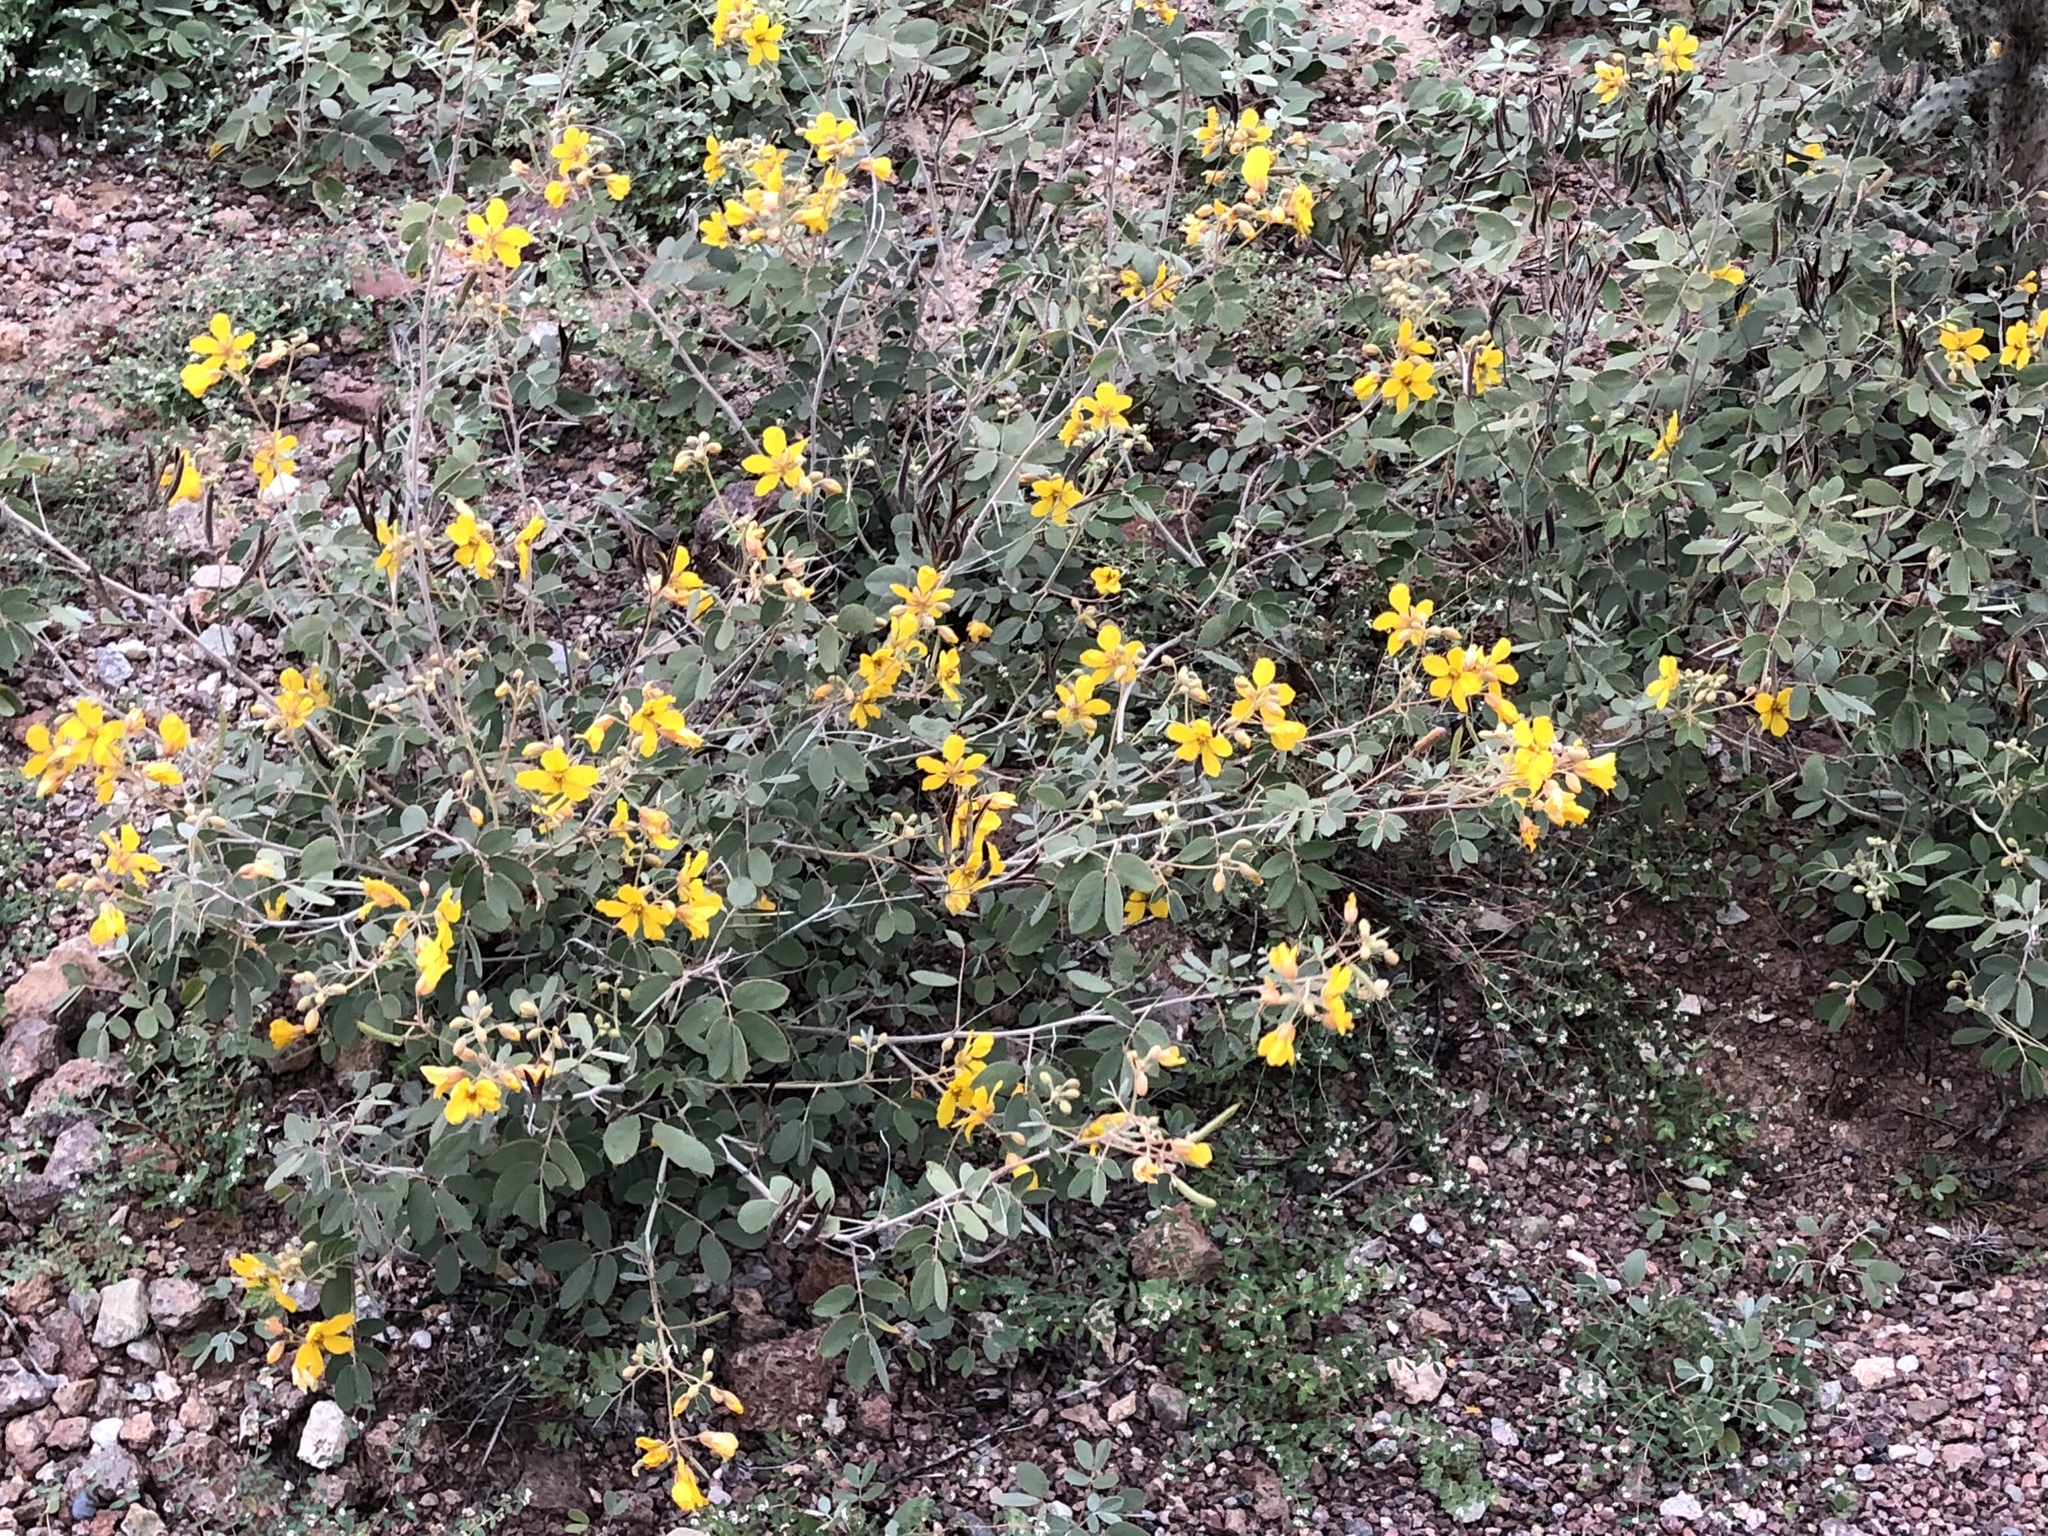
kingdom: Plantae
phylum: Tracheophyta
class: Magnoliopsida
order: Fabales
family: Fabaceae
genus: Senna
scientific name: Senna covesii
